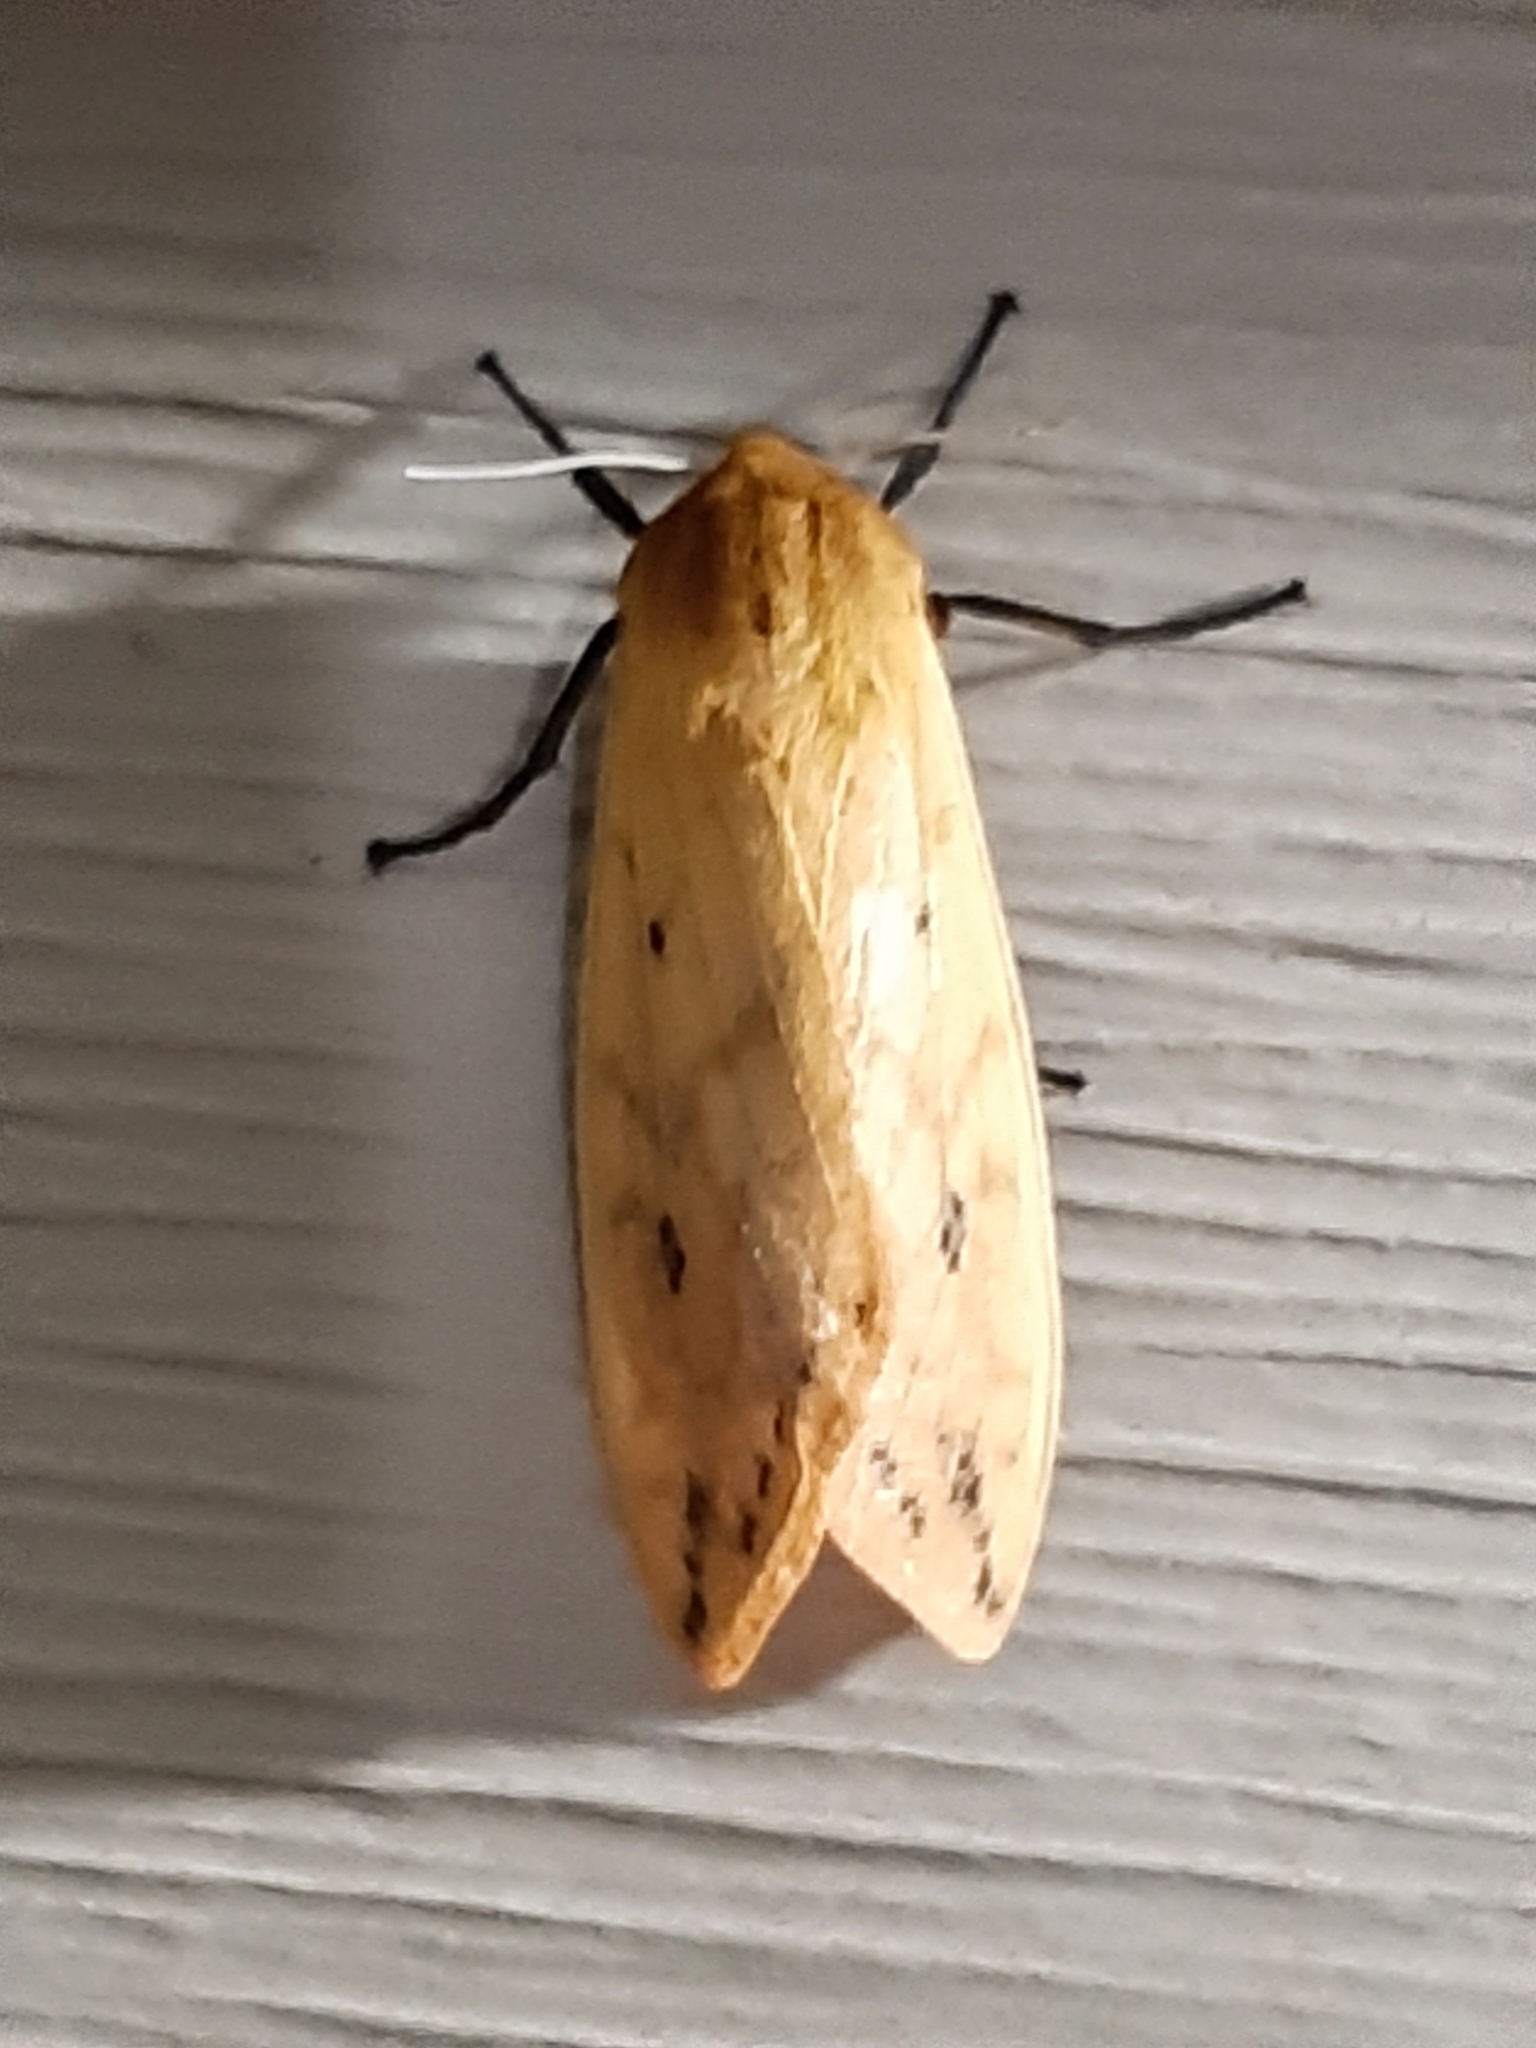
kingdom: Animalia
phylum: Arthropoda
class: Insecta
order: Lepidoptera
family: Erebidae
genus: Pyrrharctia
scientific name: Pyrrharctia isabella
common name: Isabella tiger moth
